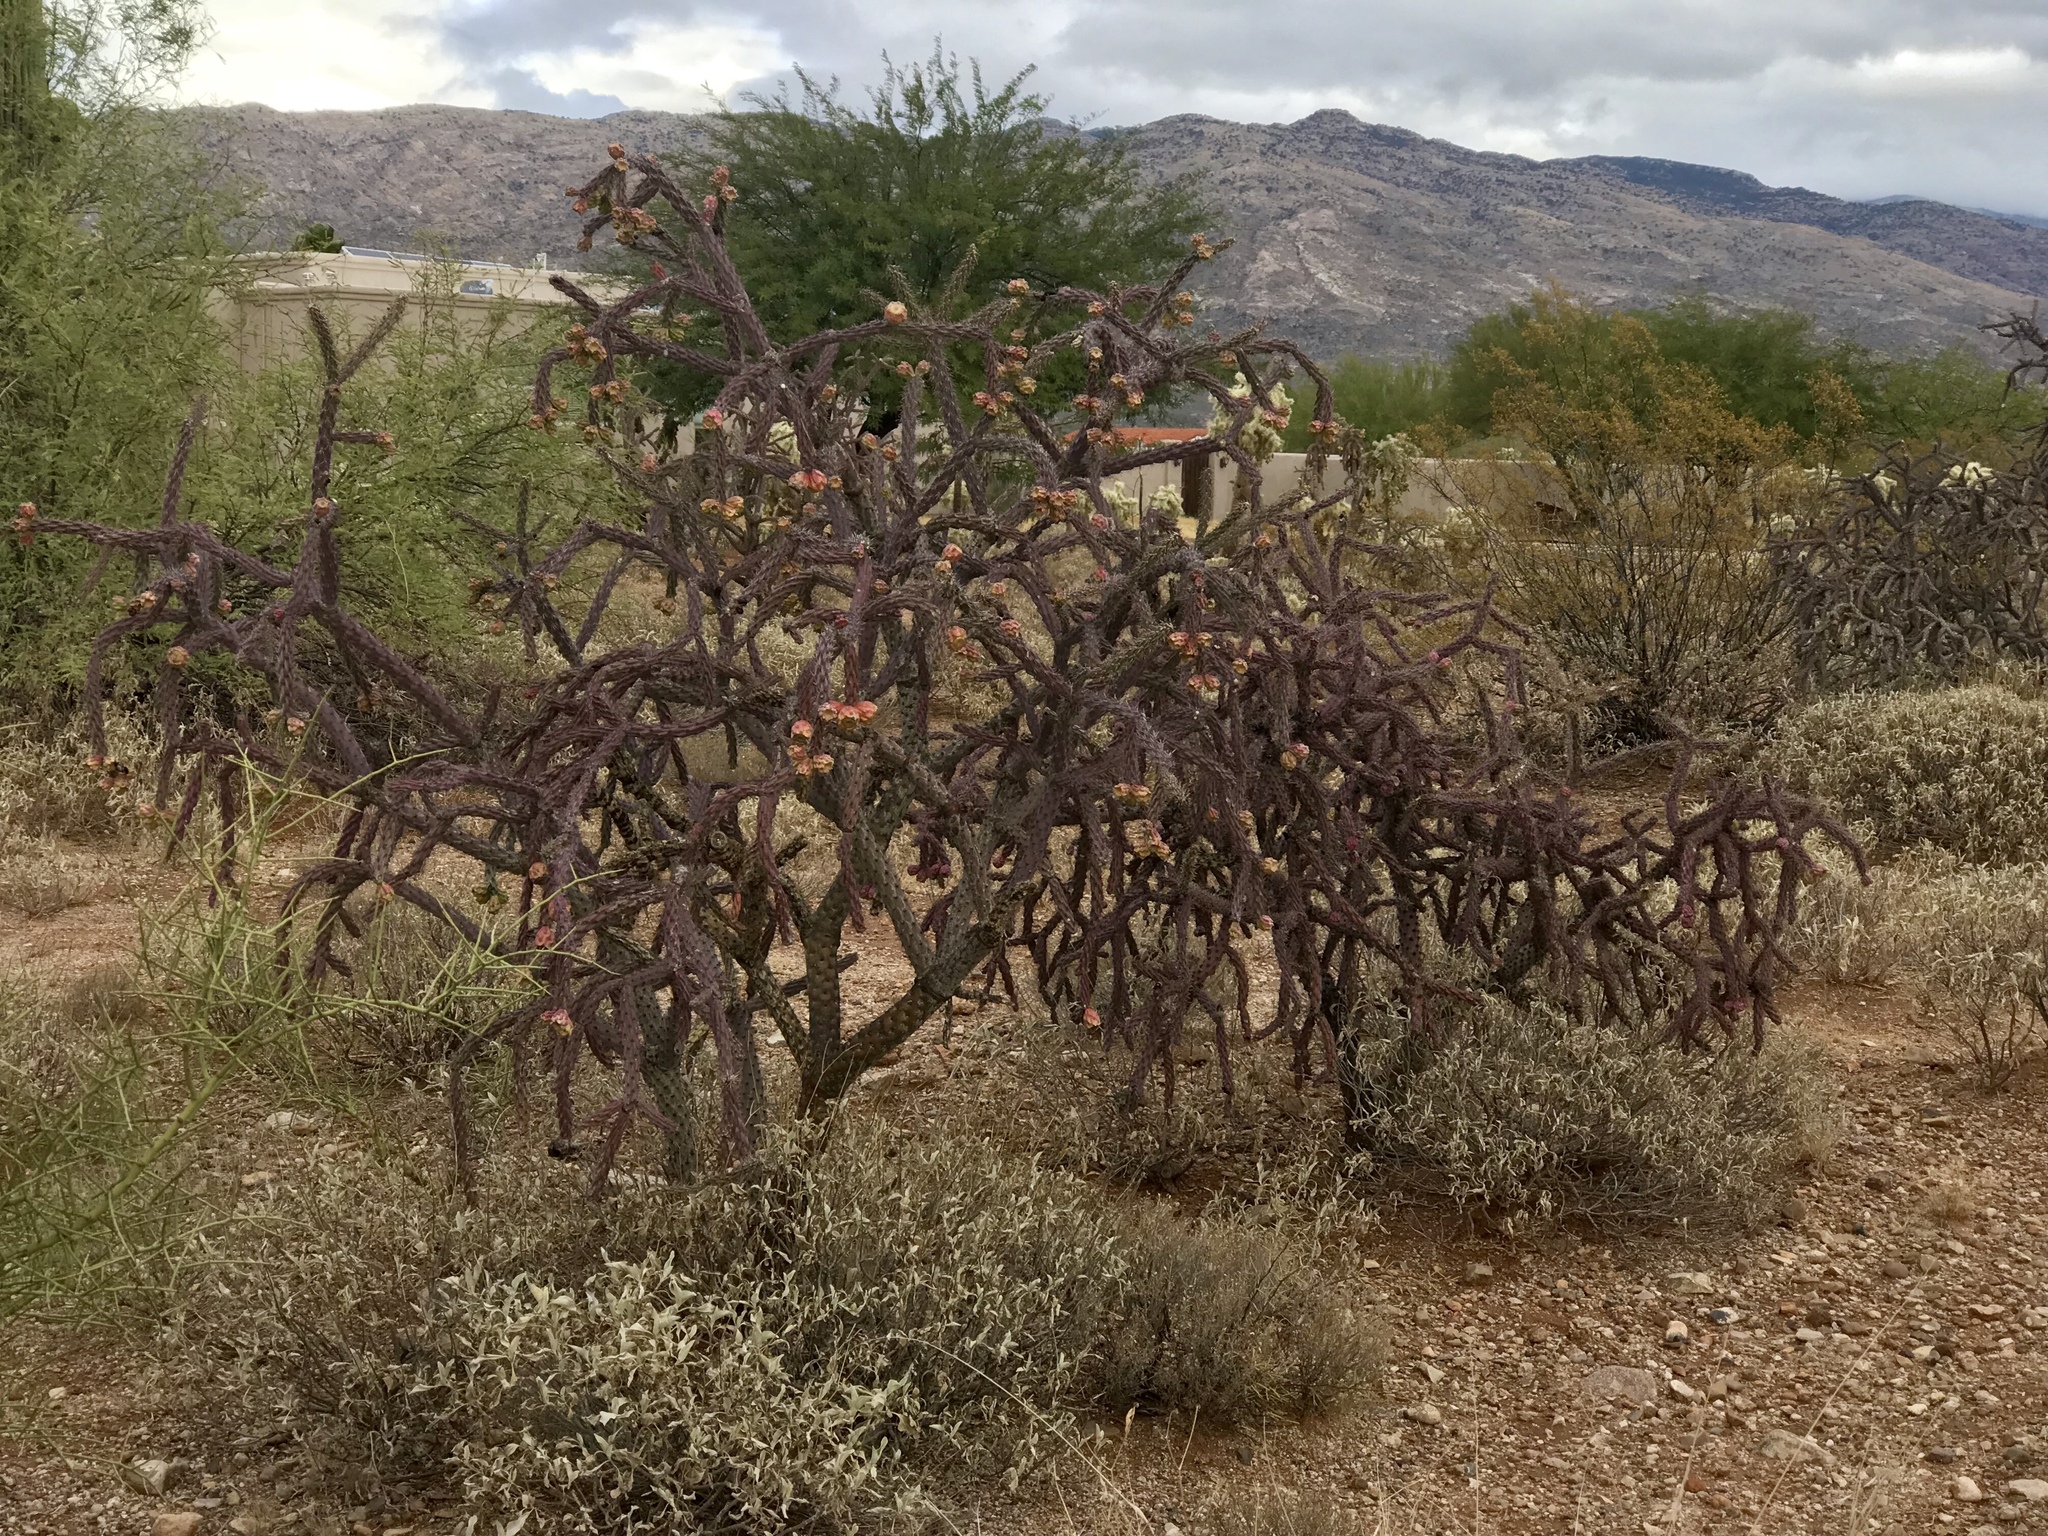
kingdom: Plantae
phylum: Tracheophyta
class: Magnoliopsida
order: Caryophyllales
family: Cactaceae
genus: Cylindropuntia
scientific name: Cylindropuntia thurberi
